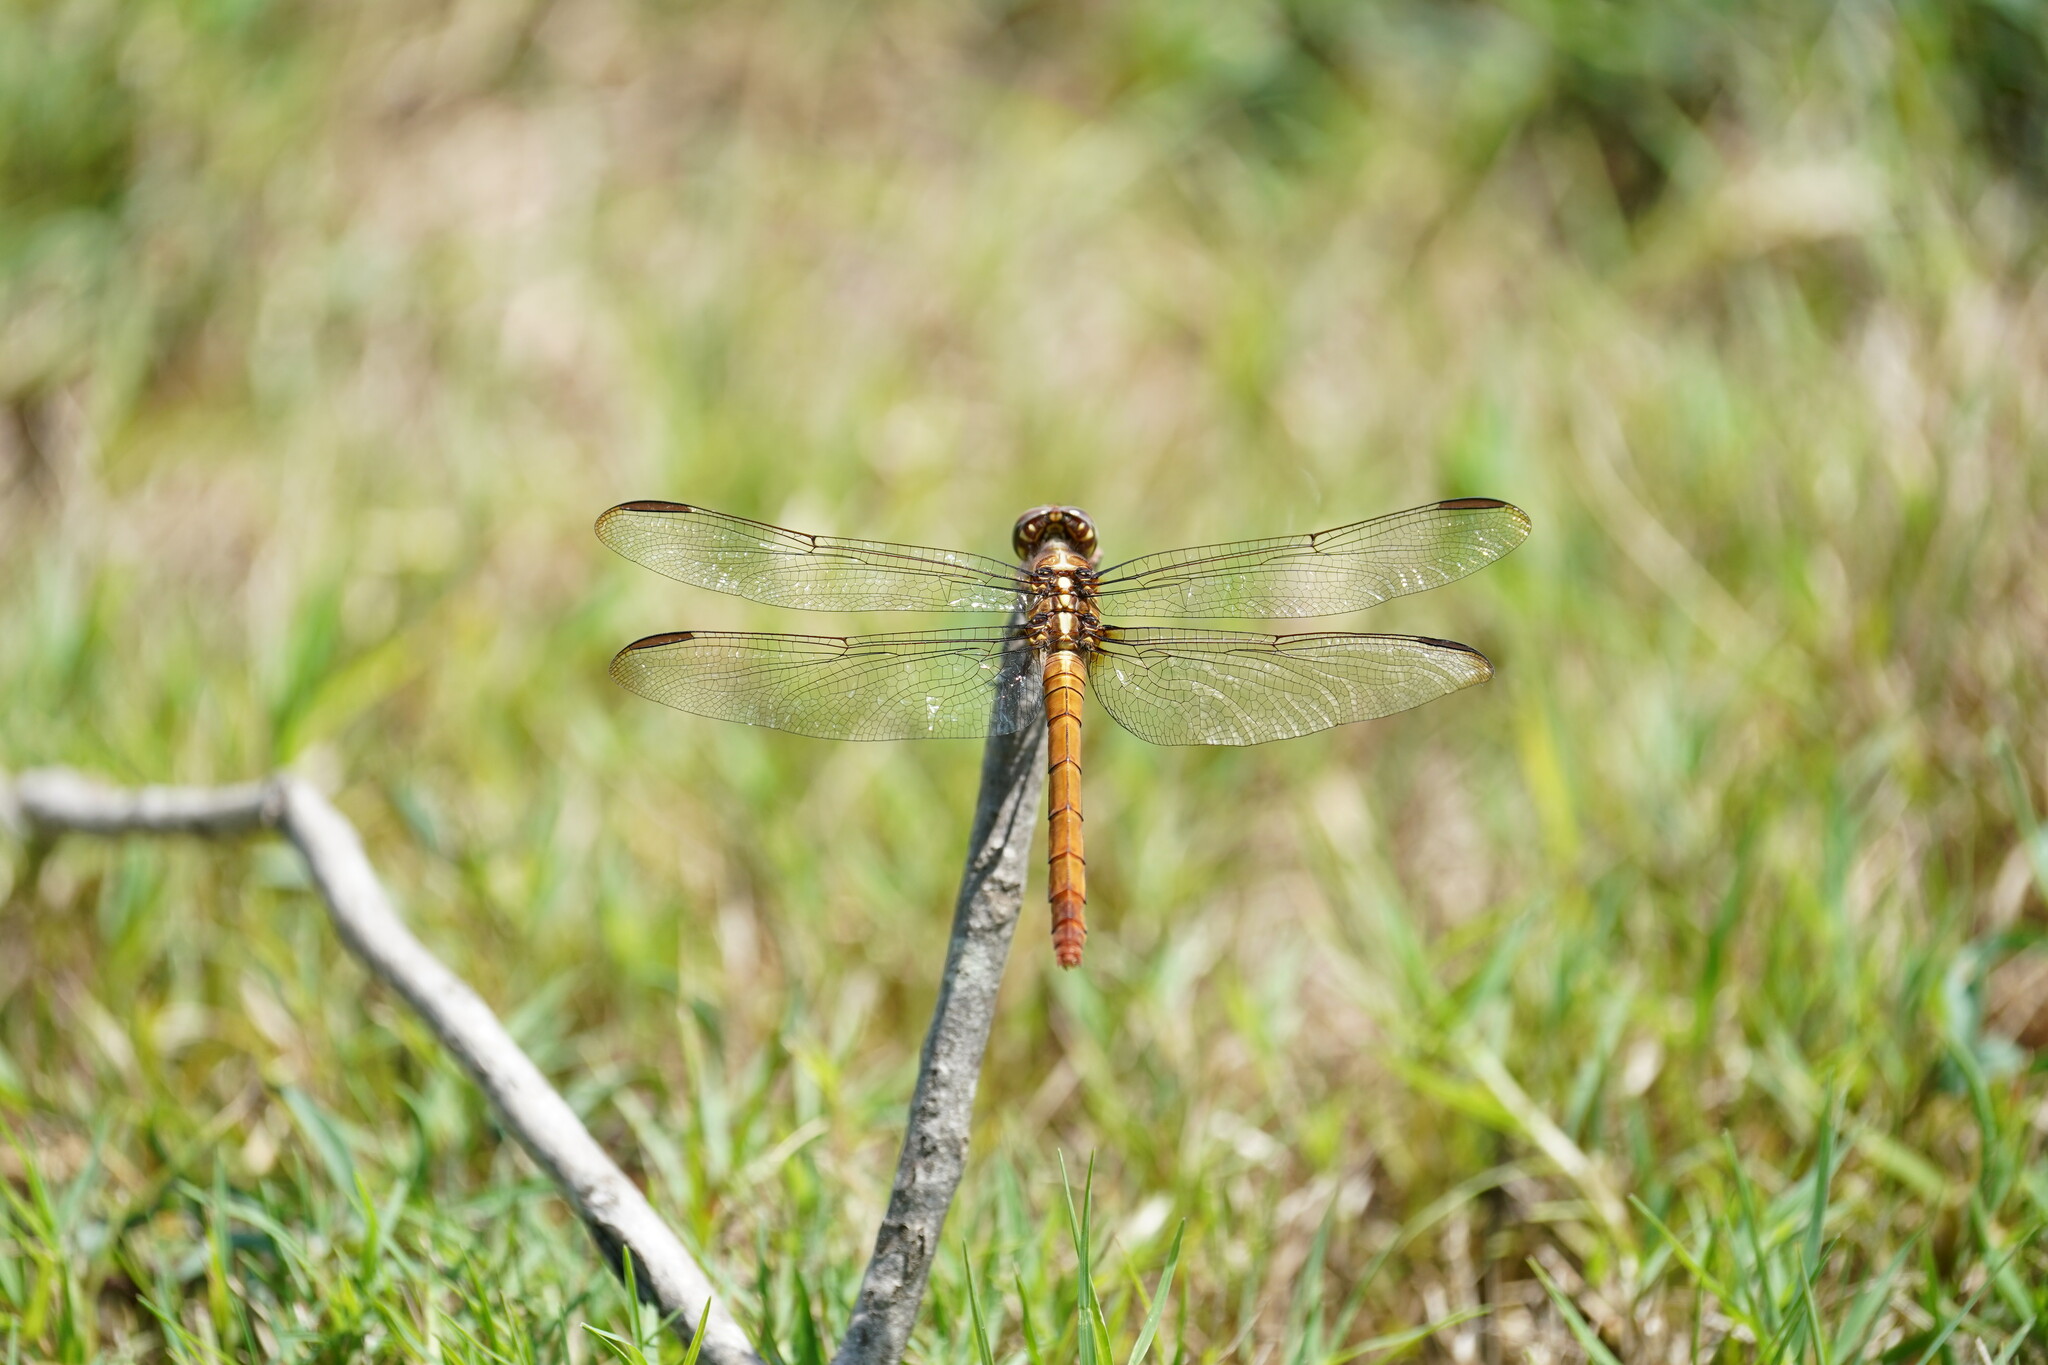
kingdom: Animalia
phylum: Arthropoda
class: Insecta
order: Odonata
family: Libellulidae
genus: Orthemis
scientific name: Orthemis ferruginea
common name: Roseate skimmer
